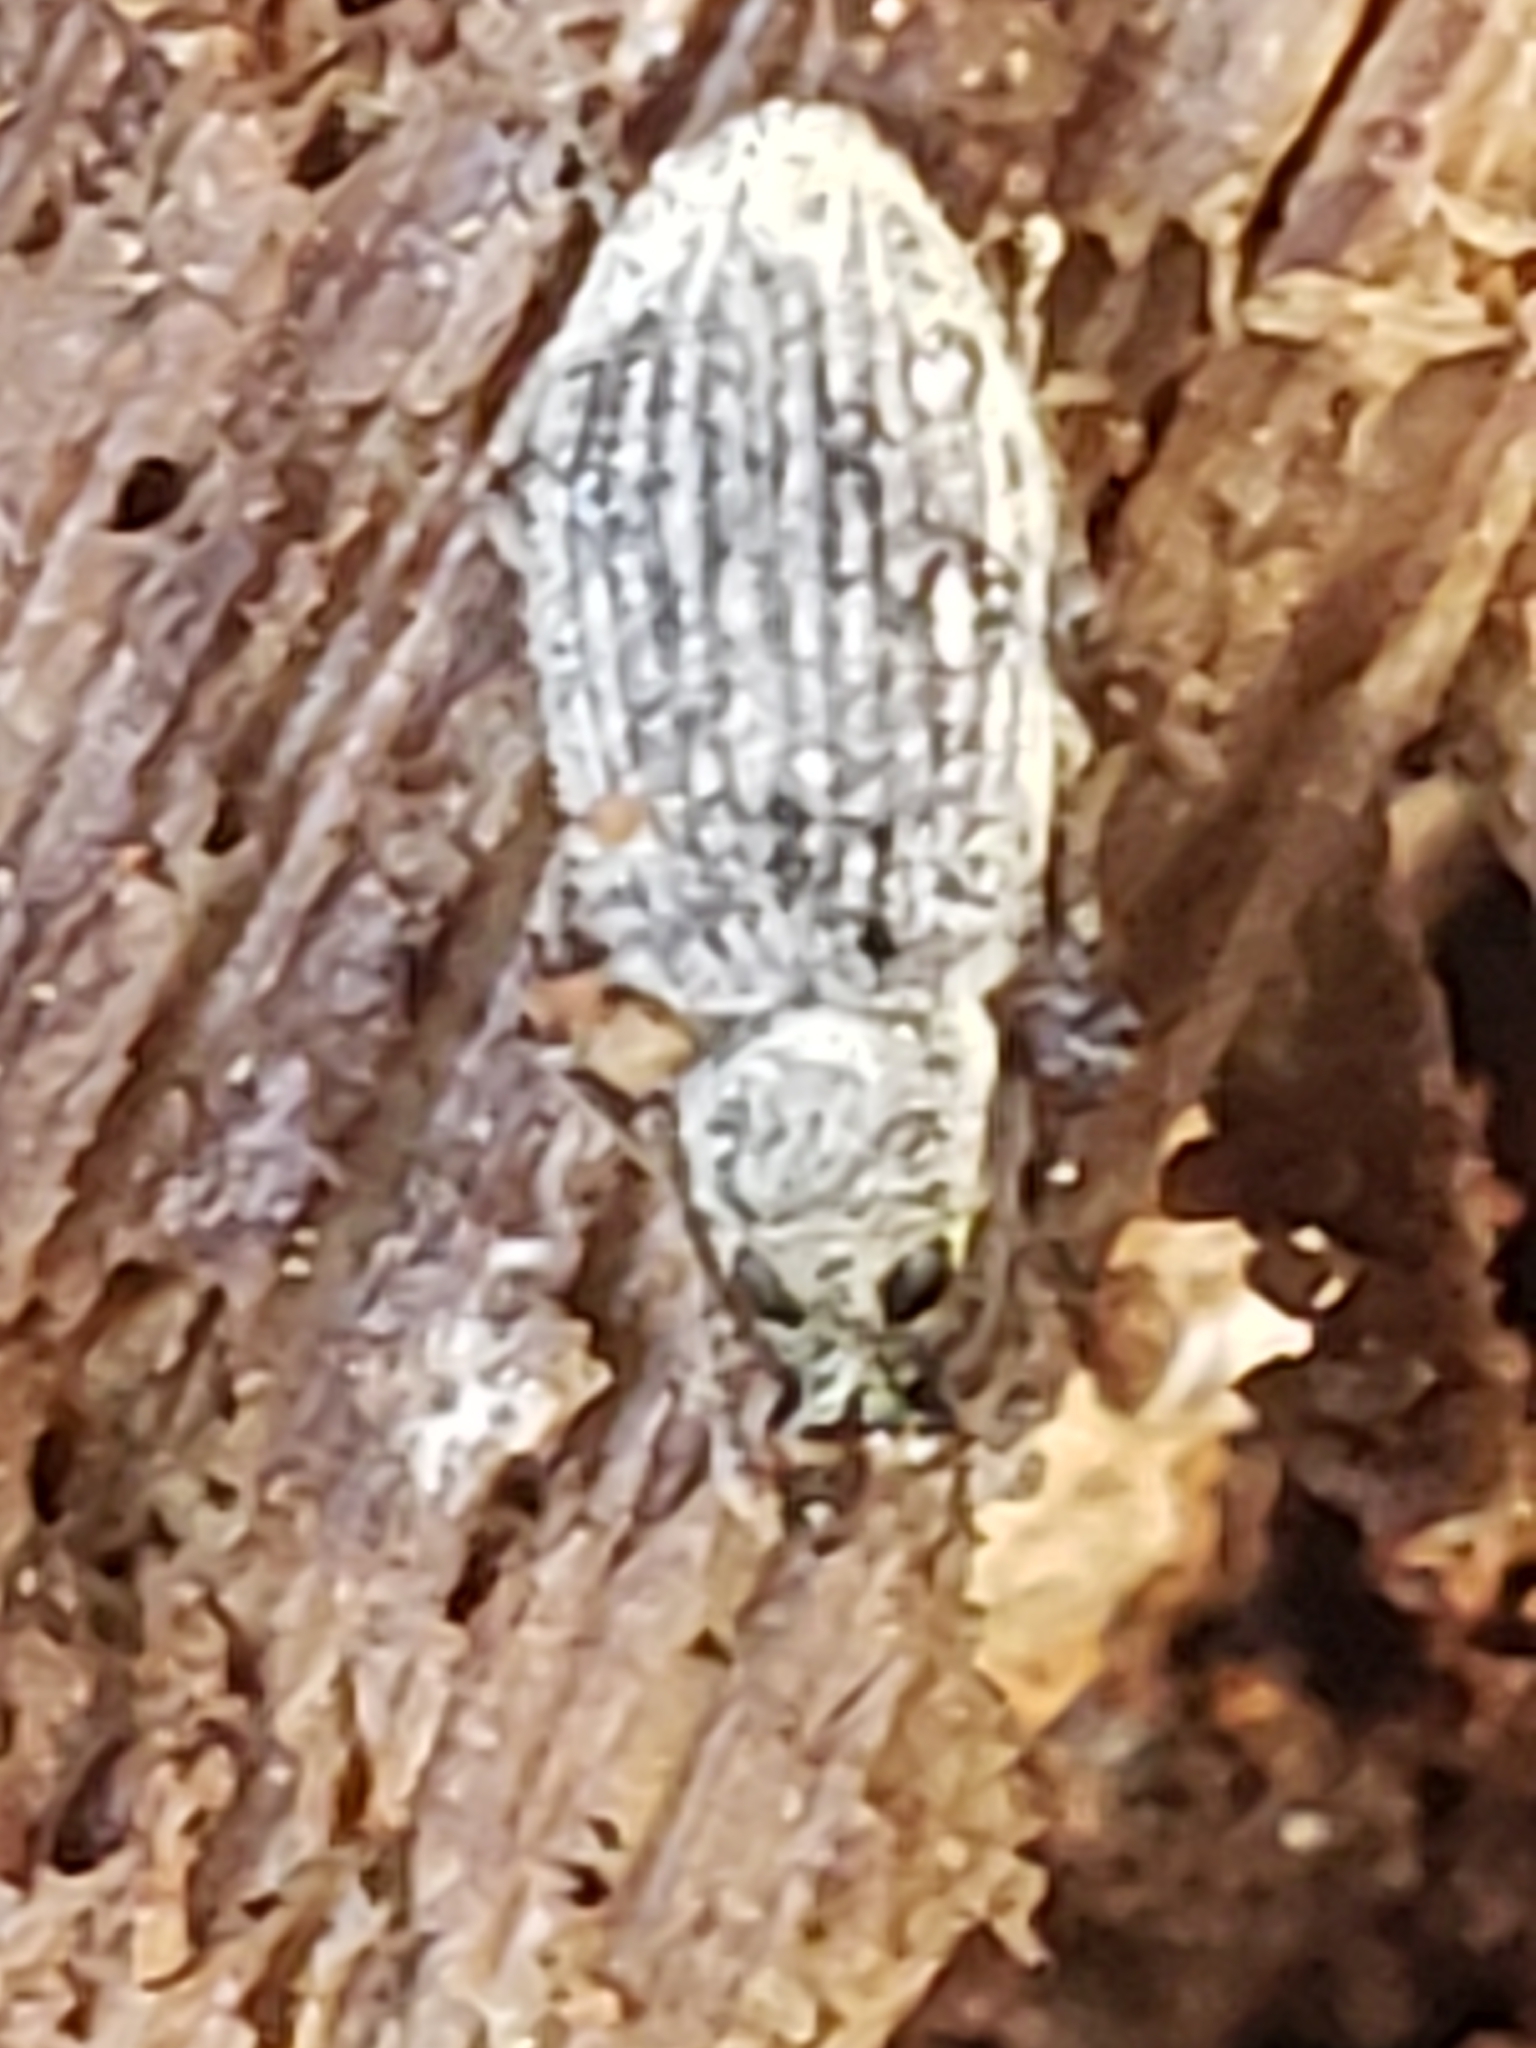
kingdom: Animalia
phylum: Arthropoda
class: Insecta
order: Coleoptera
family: Curculionidae
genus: Cyrtepistomus
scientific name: Cyrtepistomus castaneus
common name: Weevil
